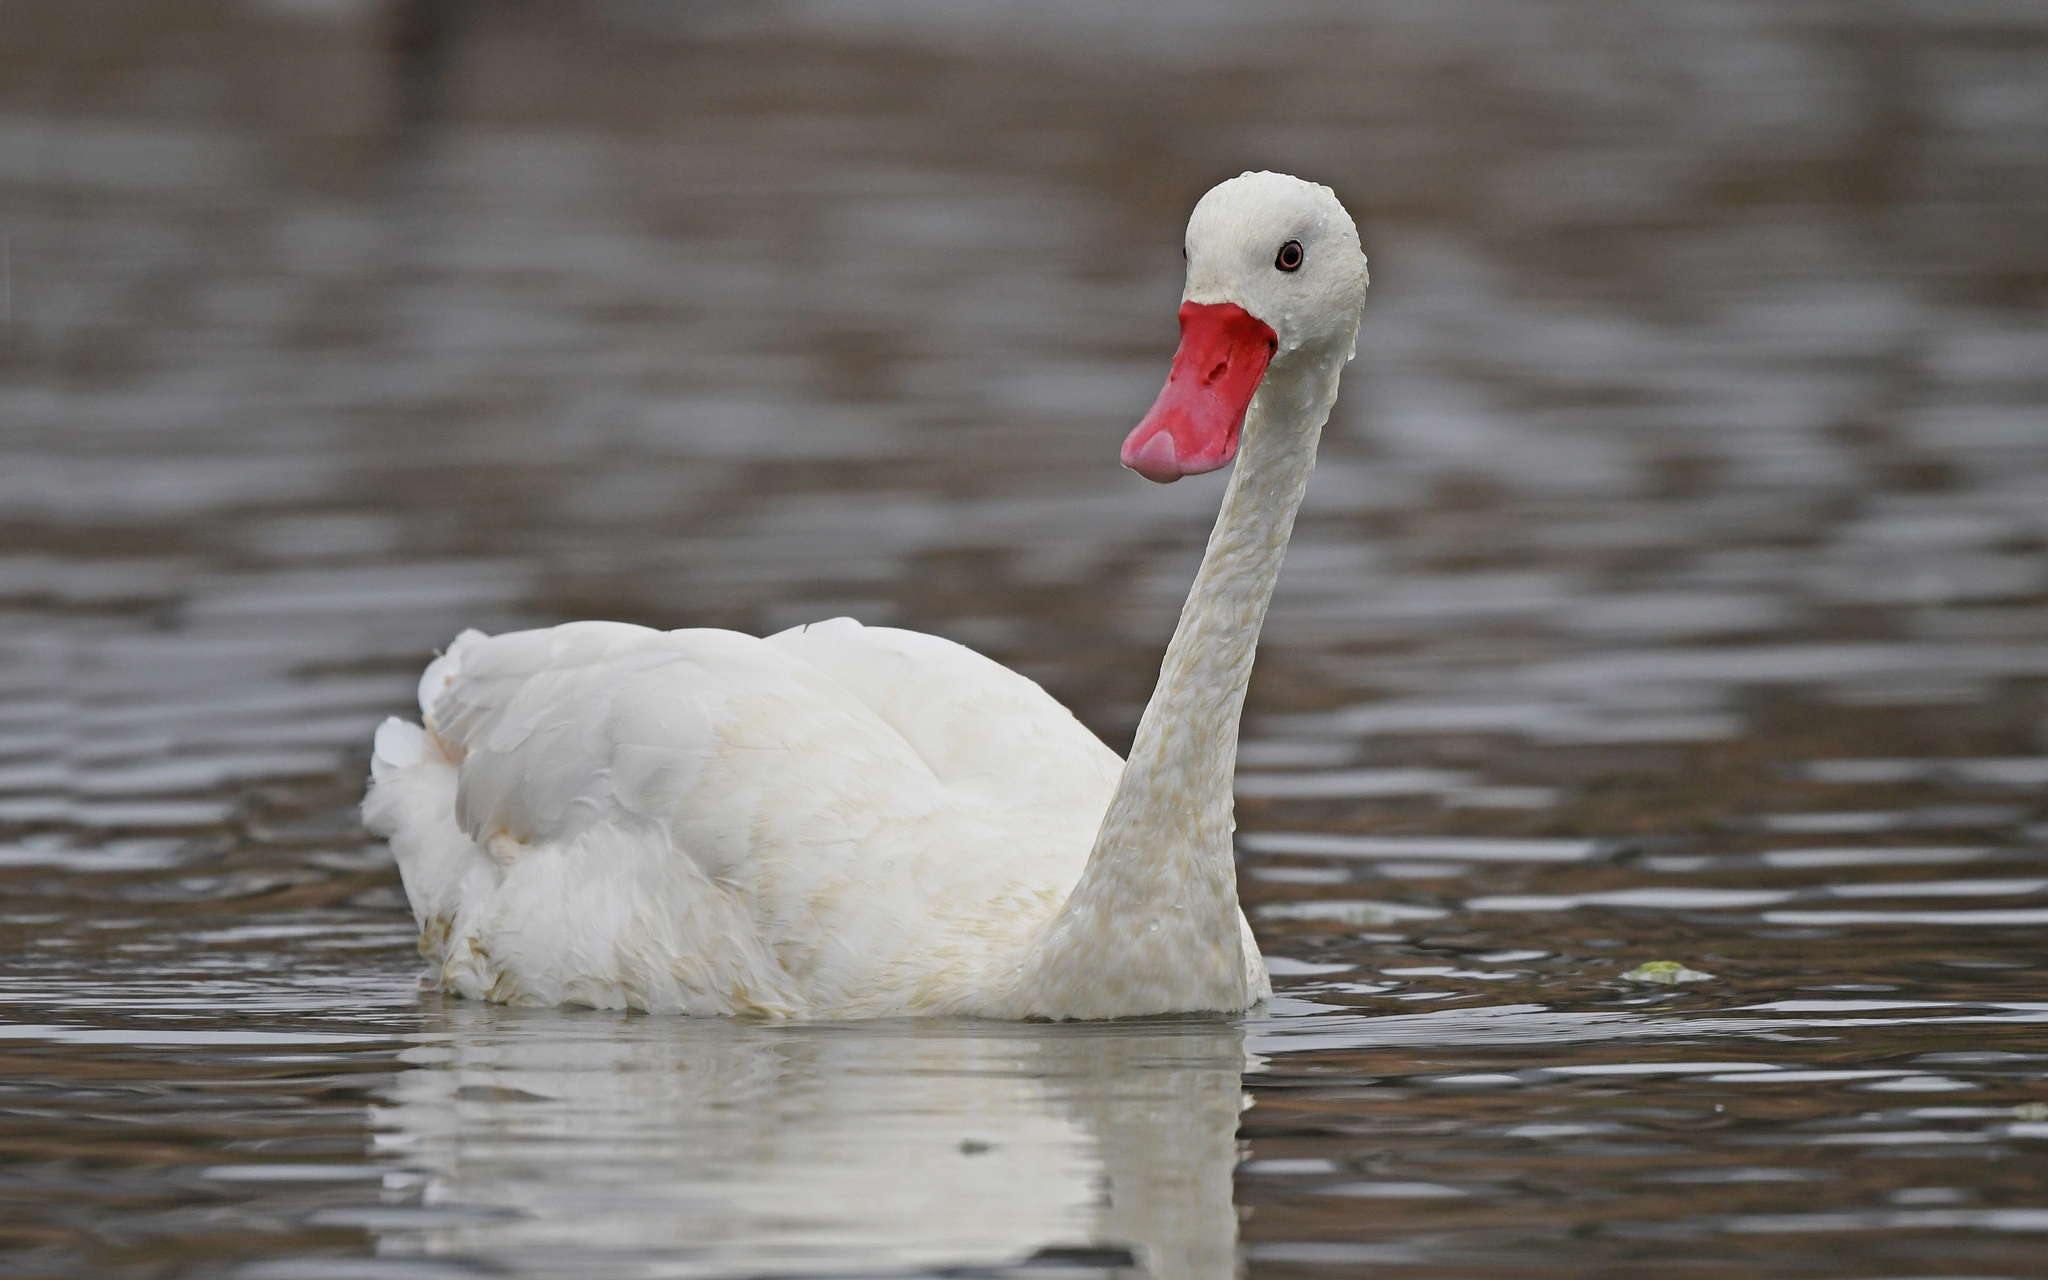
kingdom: Animalia
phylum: Chordata
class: Aves
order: Anseriformes
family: Anatidae
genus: Coscoroba
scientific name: Coscoroba coscoroba
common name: Coscoroba swan
